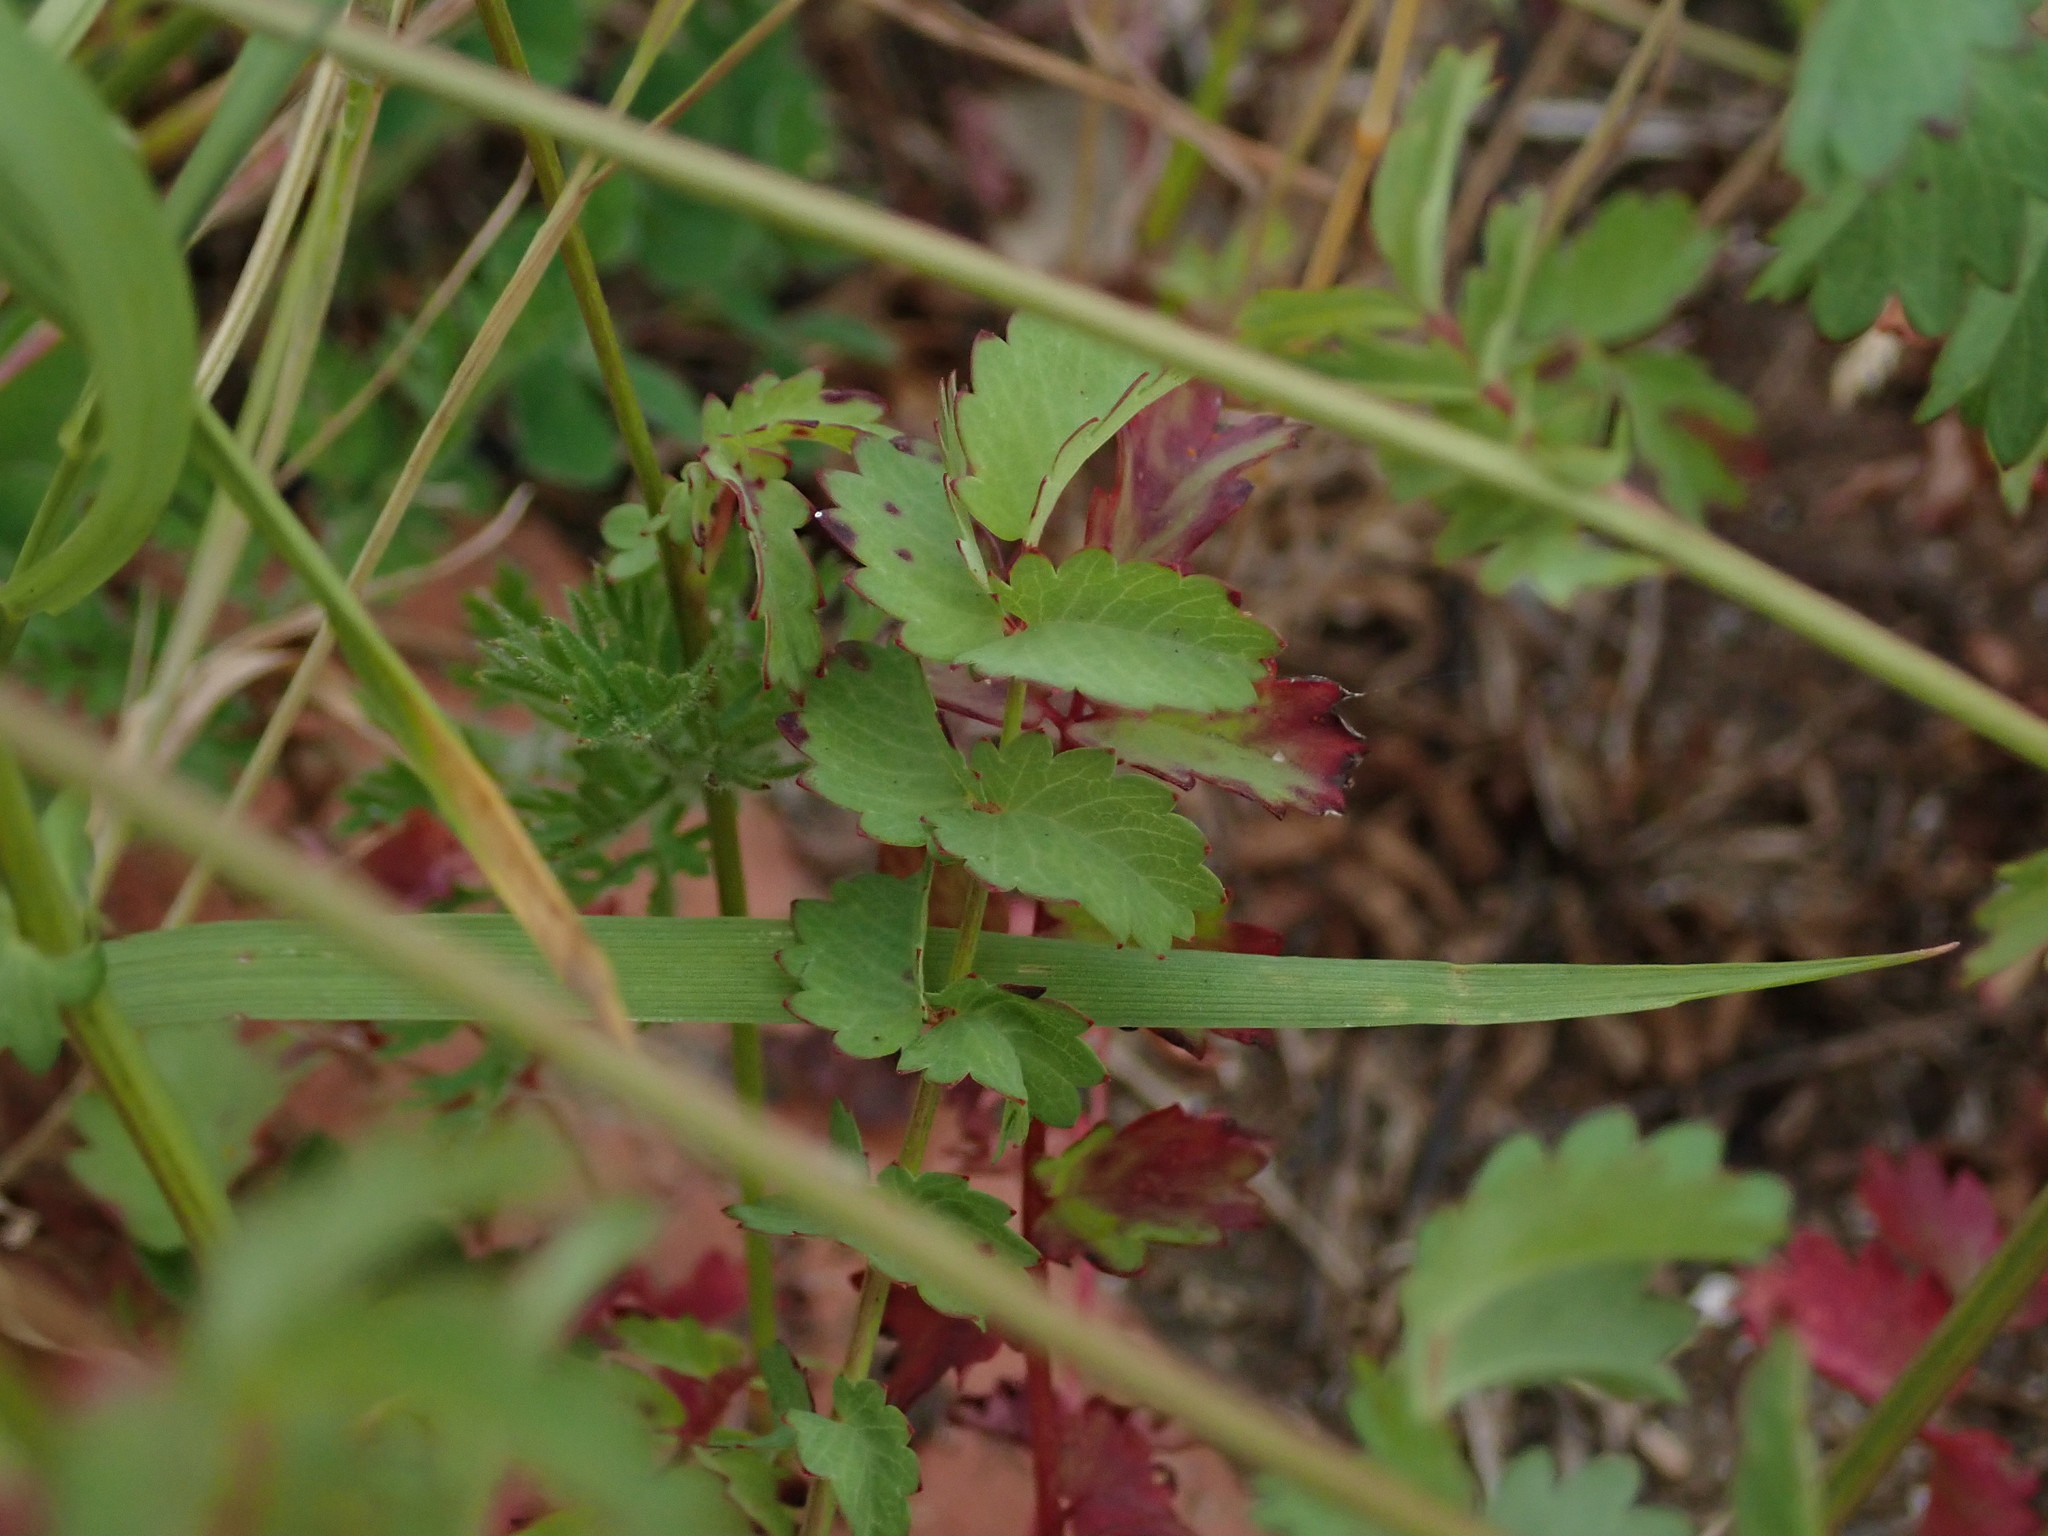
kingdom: Plantae
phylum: Tracheophyta
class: Magnoliopsida
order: Rosales
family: Rosaceae
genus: Poterium
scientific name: Poterium sanguisorba
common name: Salad burnet
